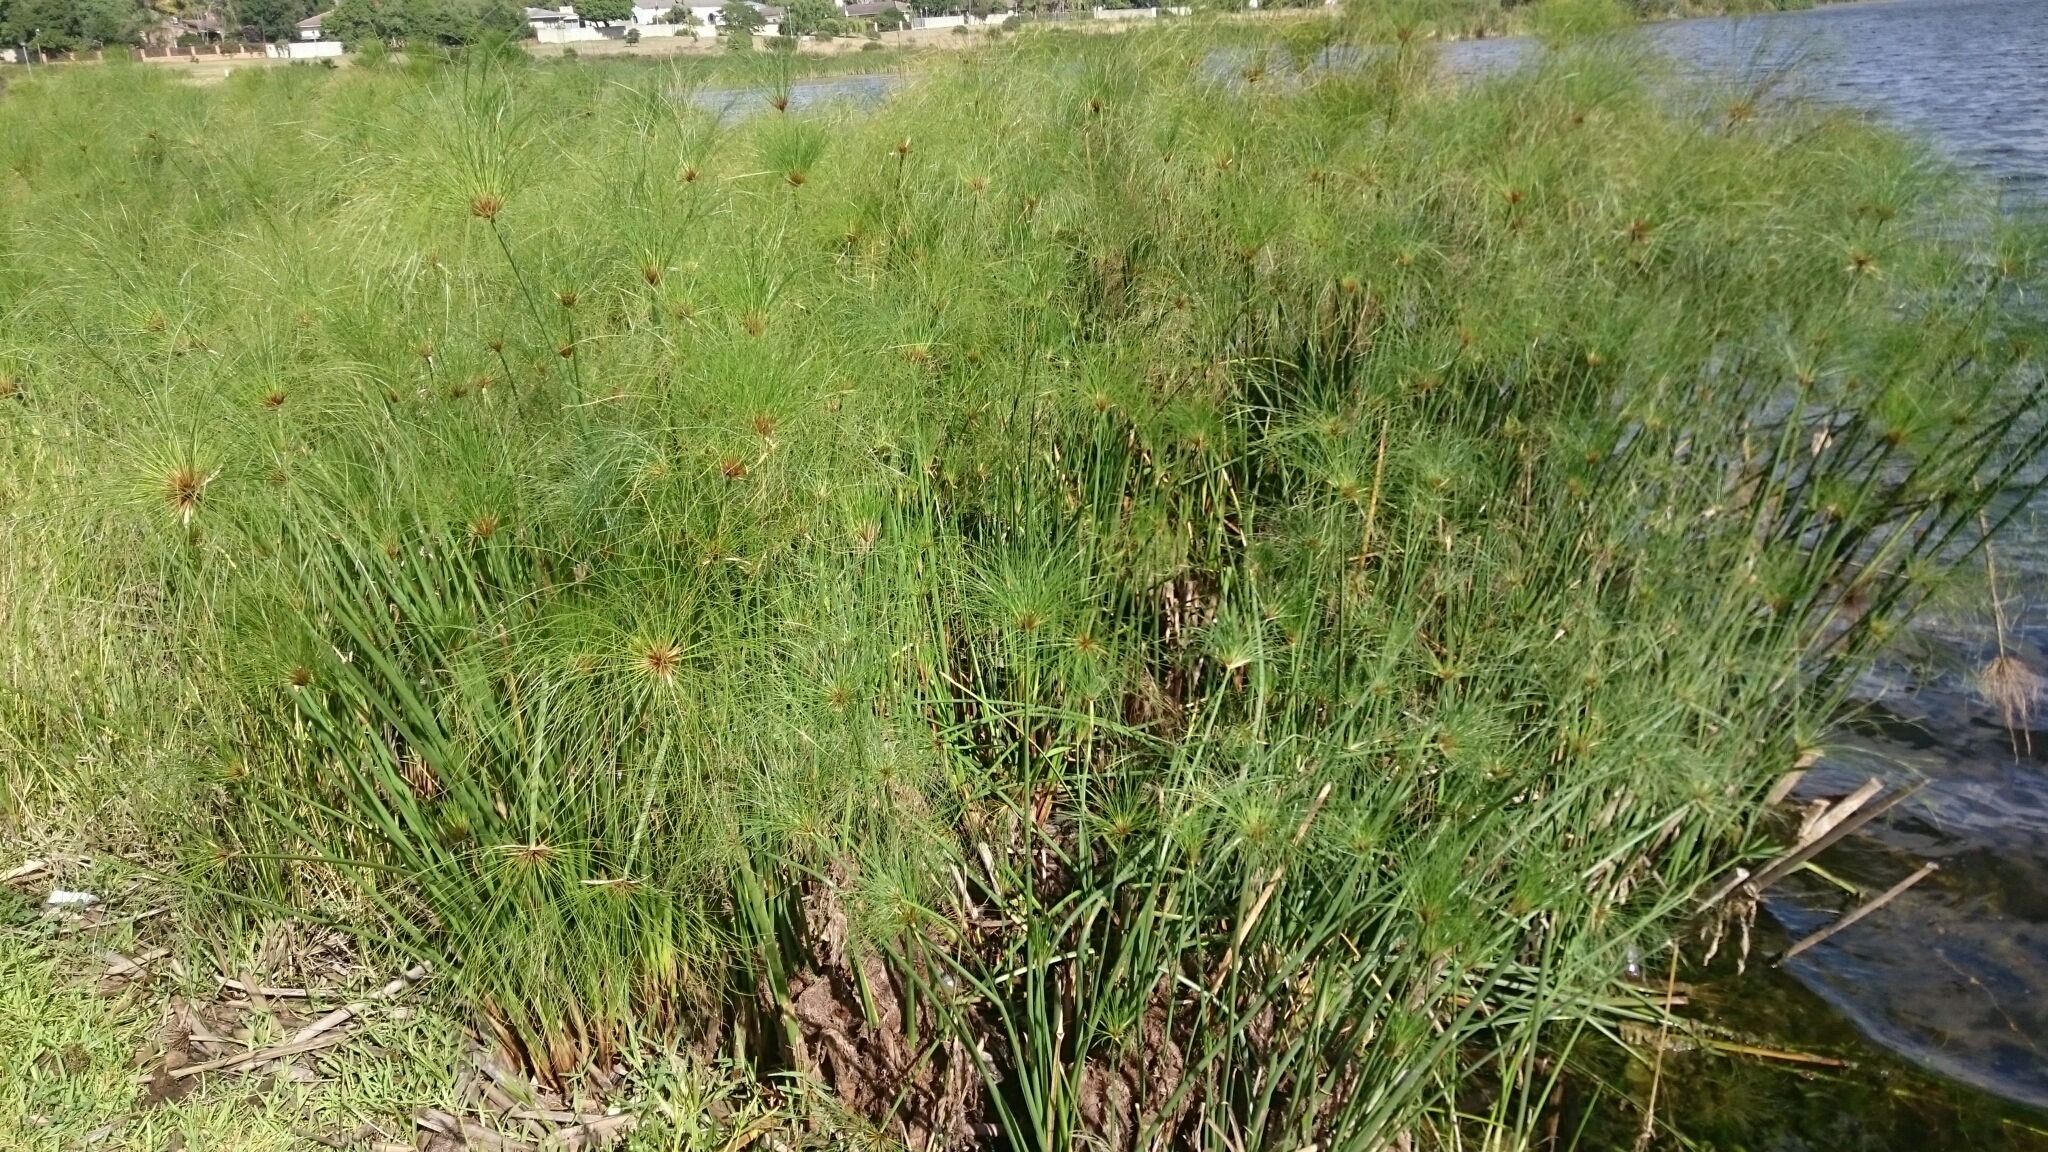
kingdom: Plantae
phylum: Tracheophyta
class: Liliopsida
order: Poales
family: Cyperaceae
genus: Cyperus
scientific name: Cyperus papyrus
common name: Papyrus
